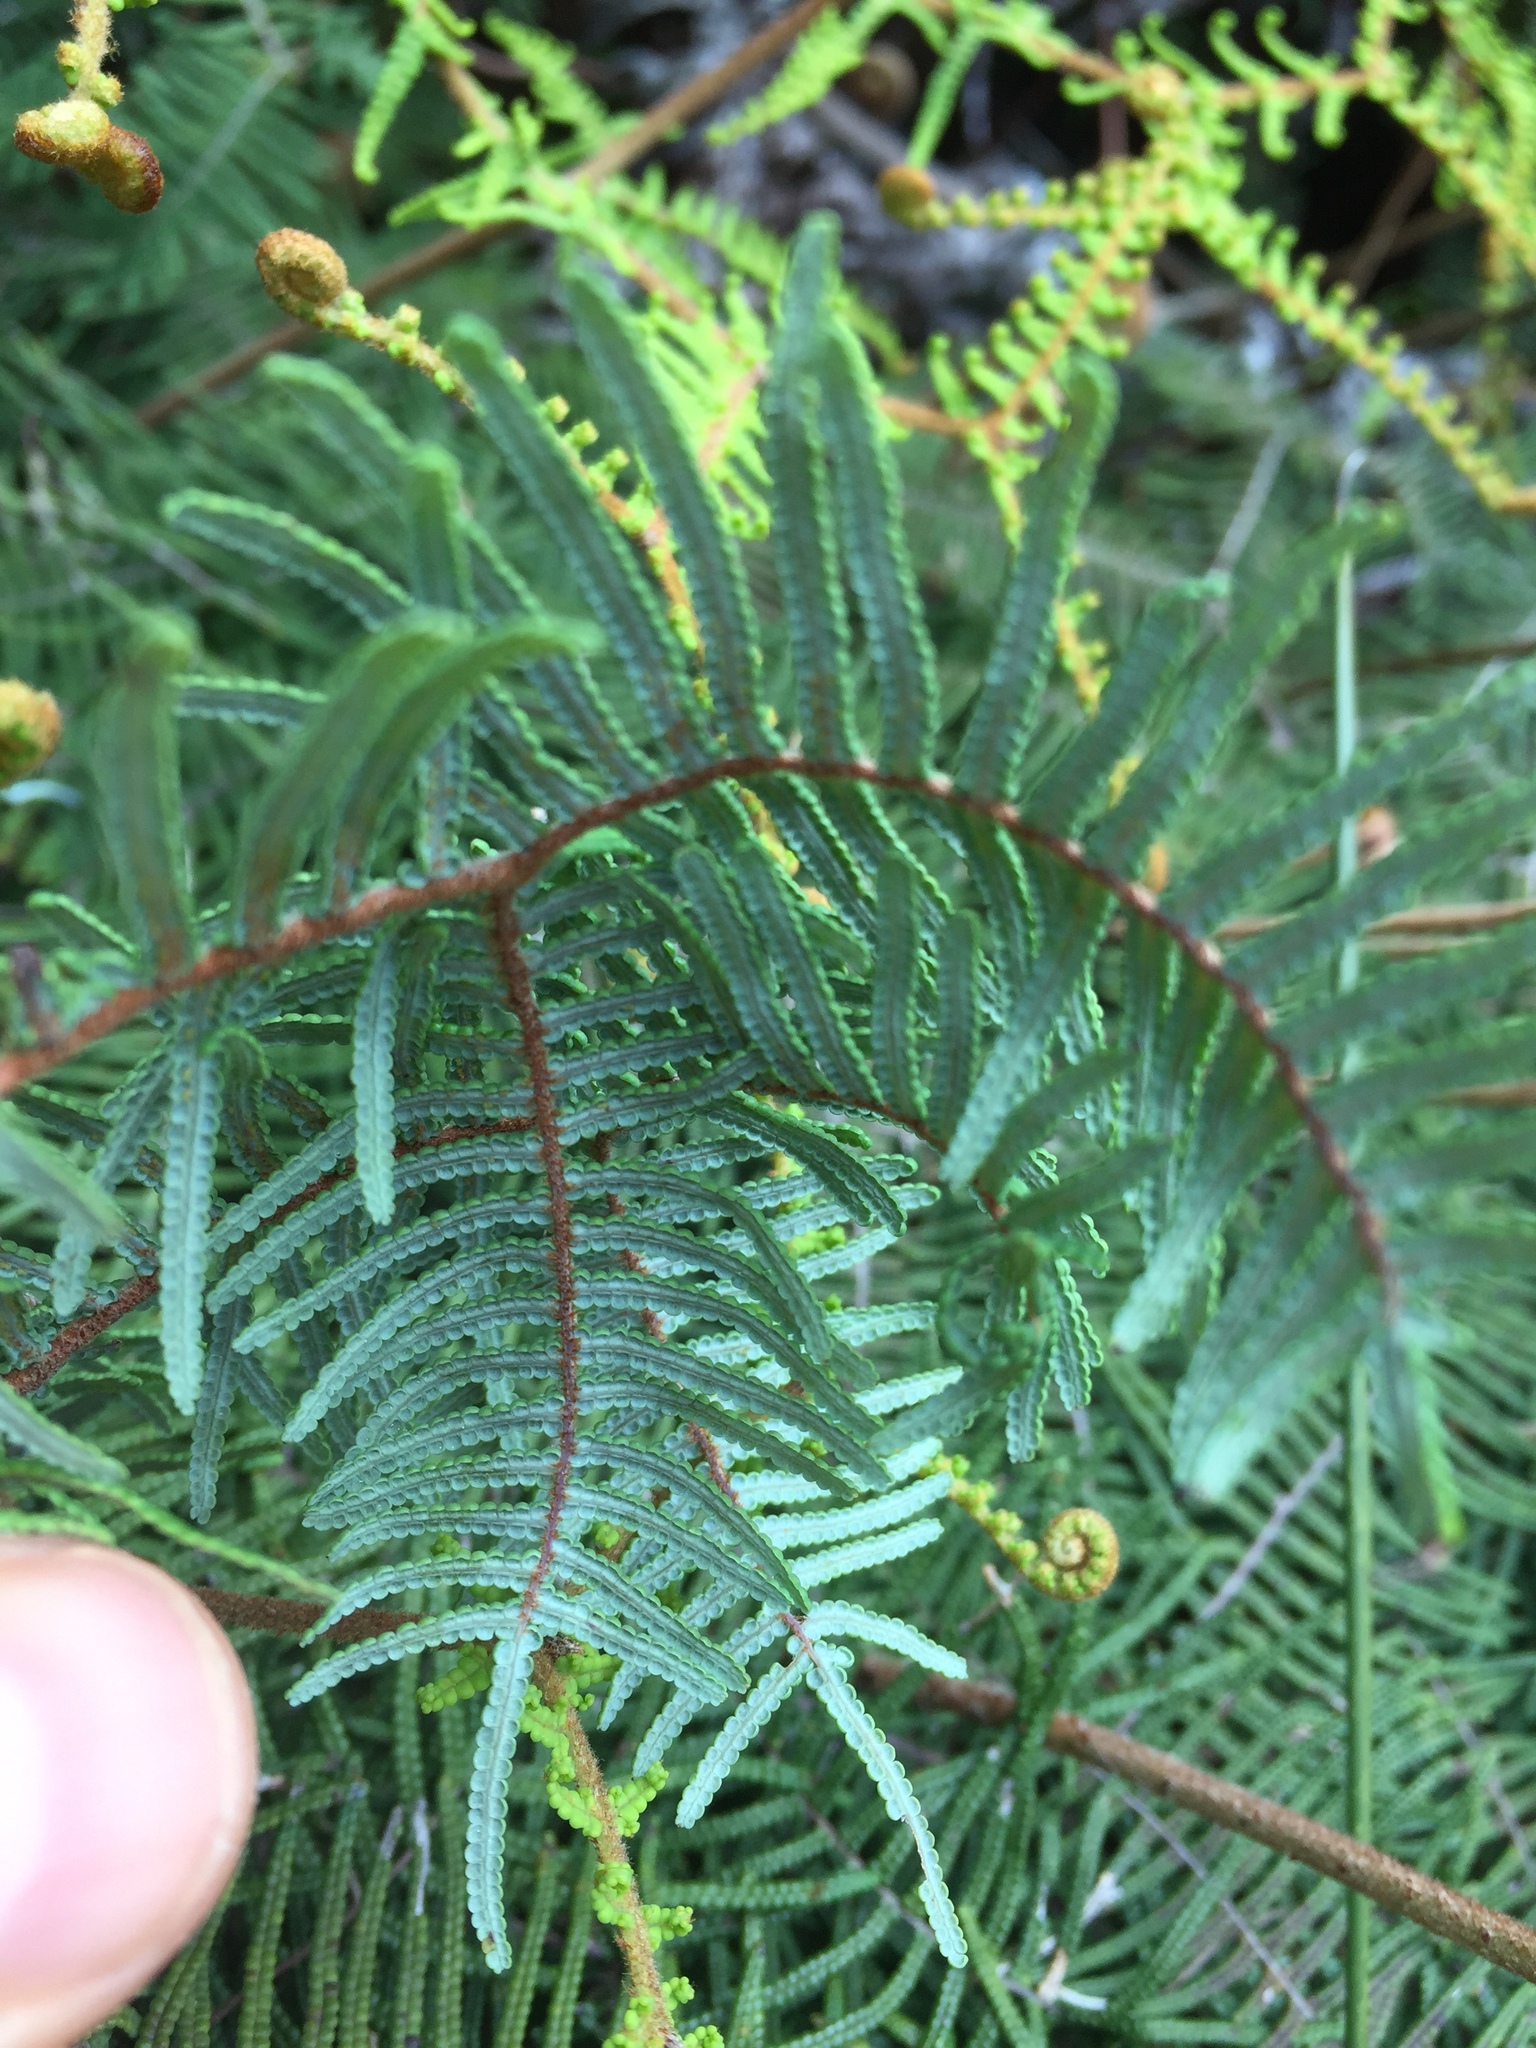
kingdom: Plantae
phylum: Tracheophyta
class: Polypodiopsida
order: Gleicheniales
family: Gleicheniaceae
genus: Gleichenia
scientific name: Gleichenia dicarpa
